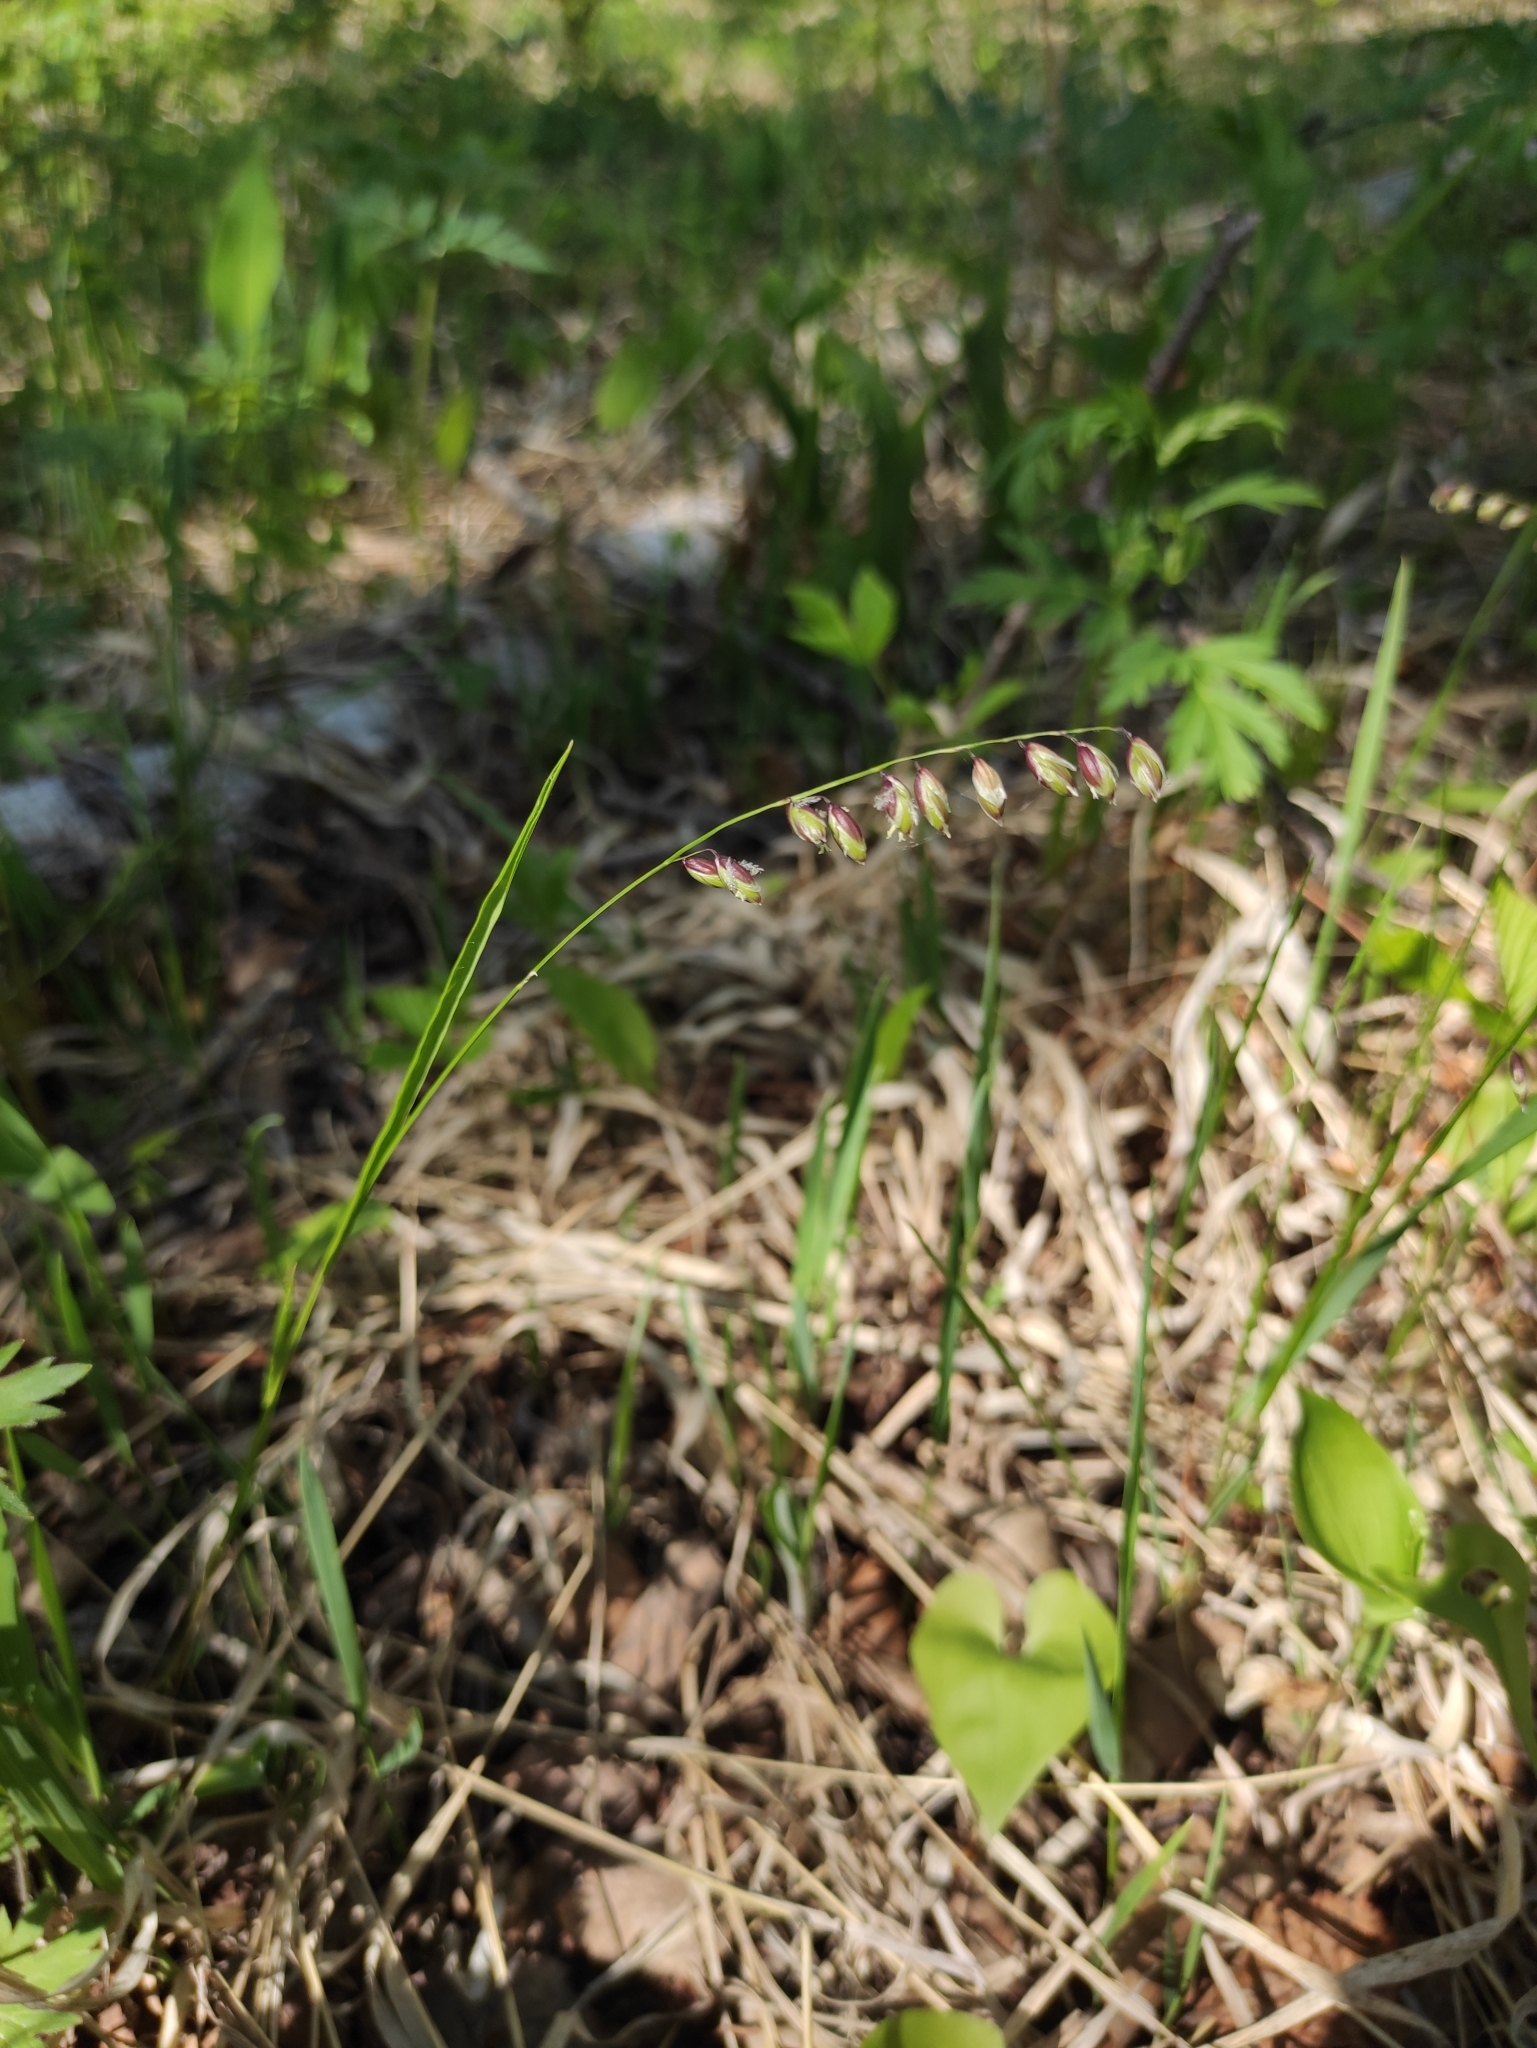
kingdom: Plantae
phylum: Tracheophyta
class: Liliopsida
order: Poales
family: Poaceae
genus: Melica
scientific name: Melica nutans
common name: Mountain melick
